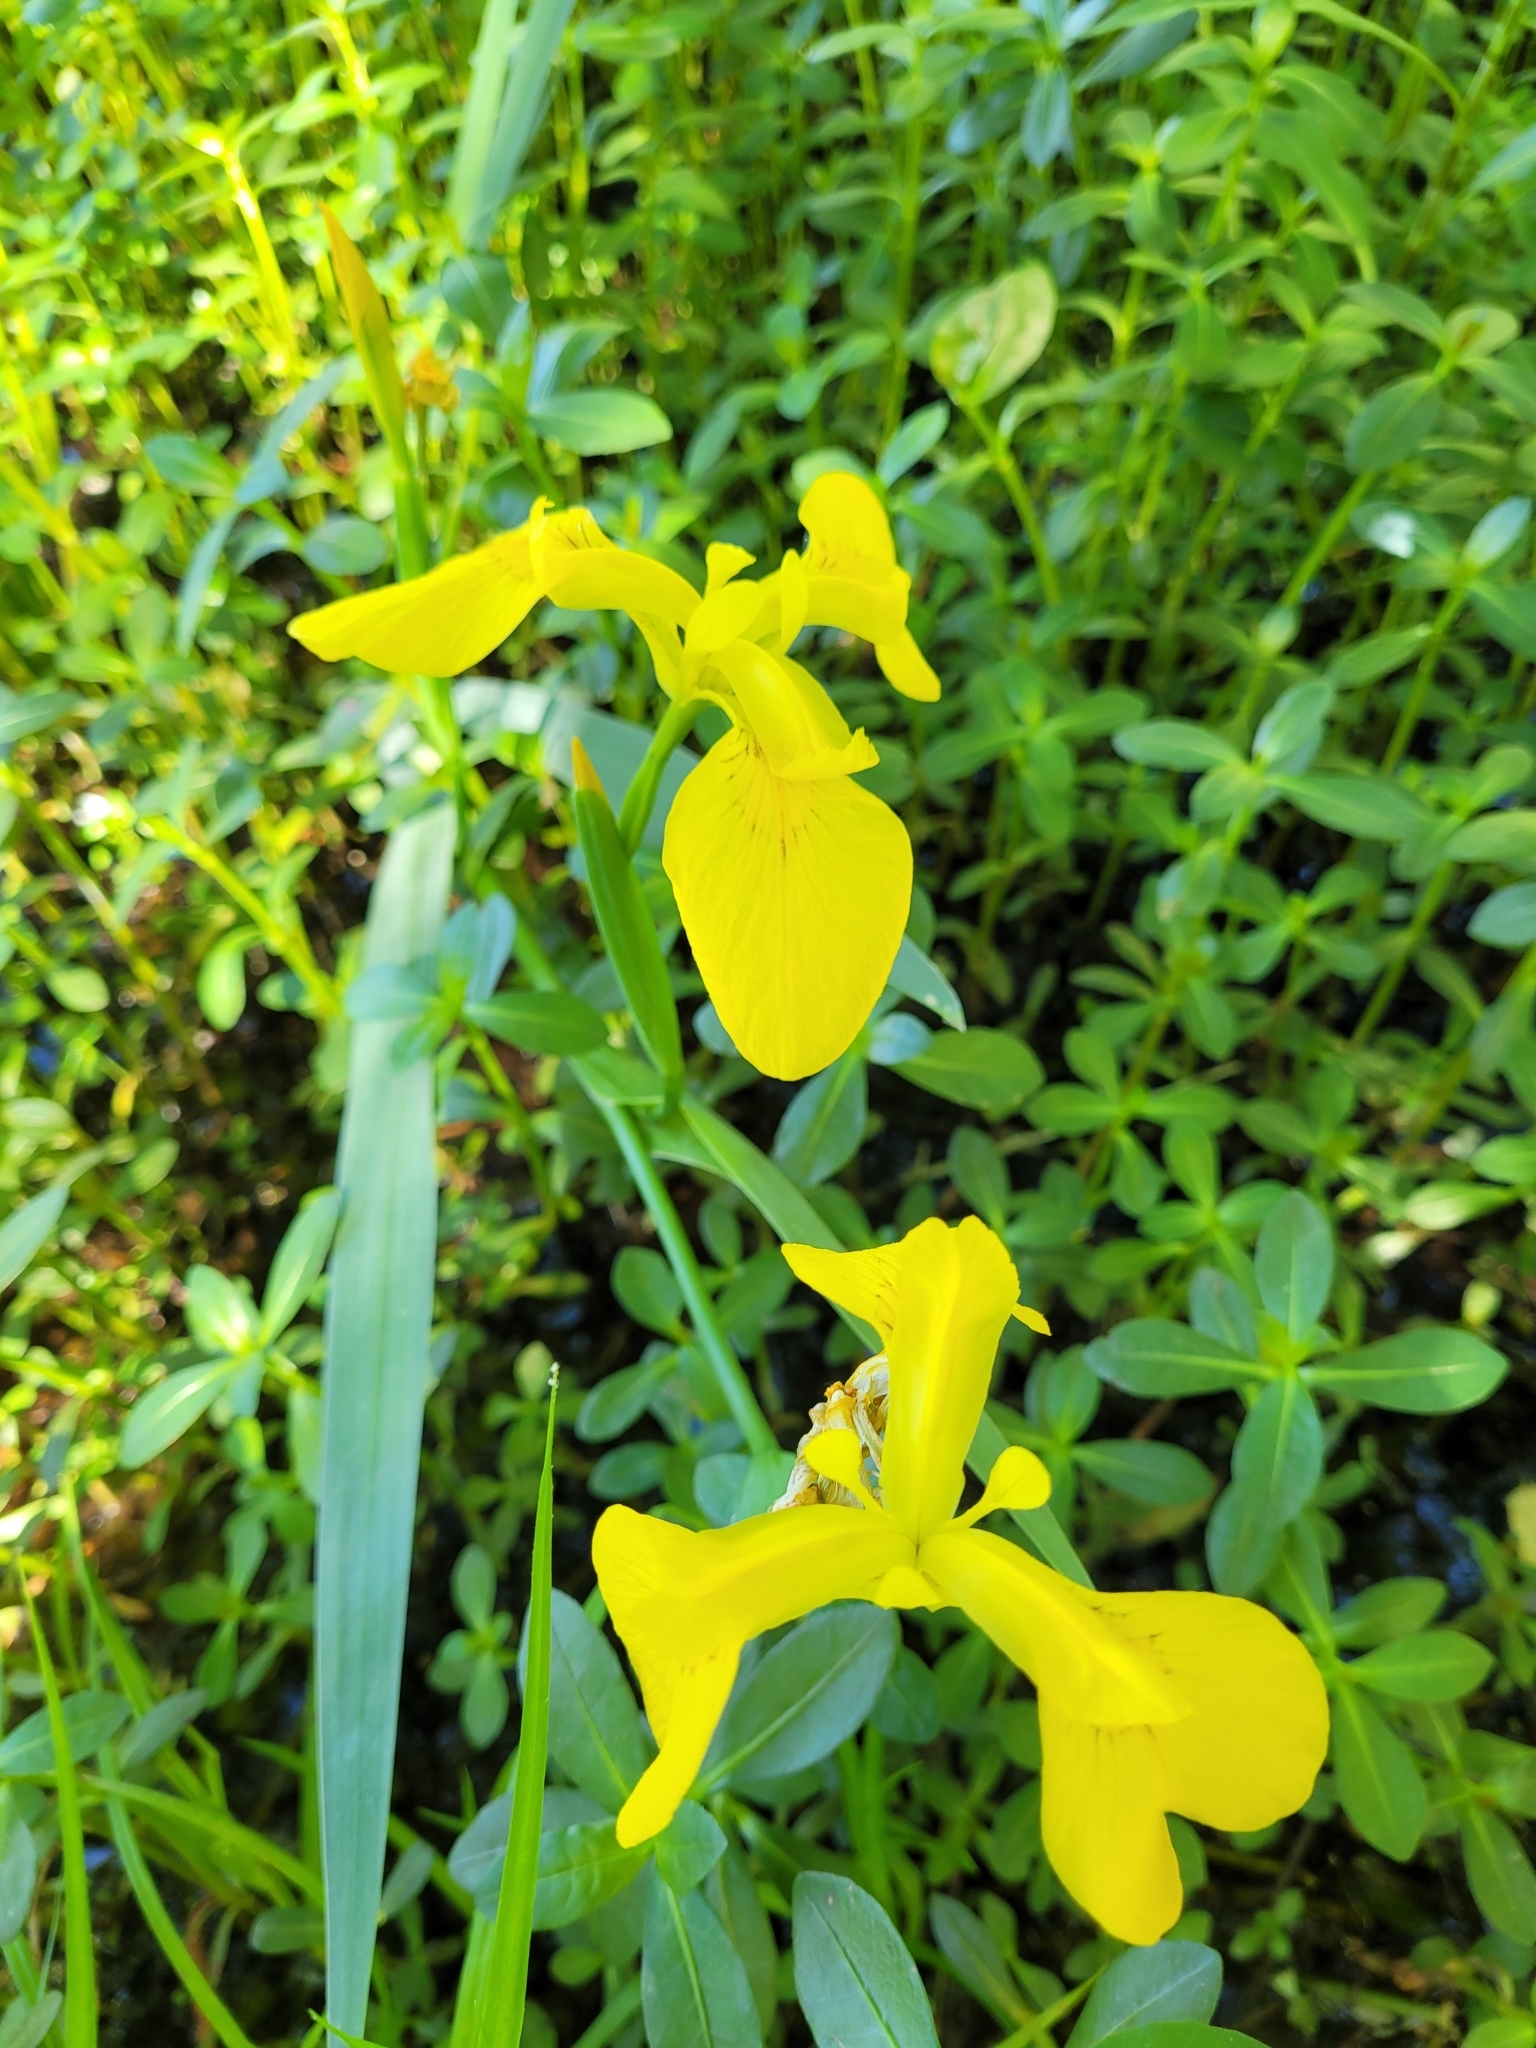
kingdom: Plantae
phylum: Tracheophyta
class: Liliopsida
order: Asparagales
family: Iridaceae
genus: Iris
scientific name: Iris pseudacorus
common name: Yellow flag
